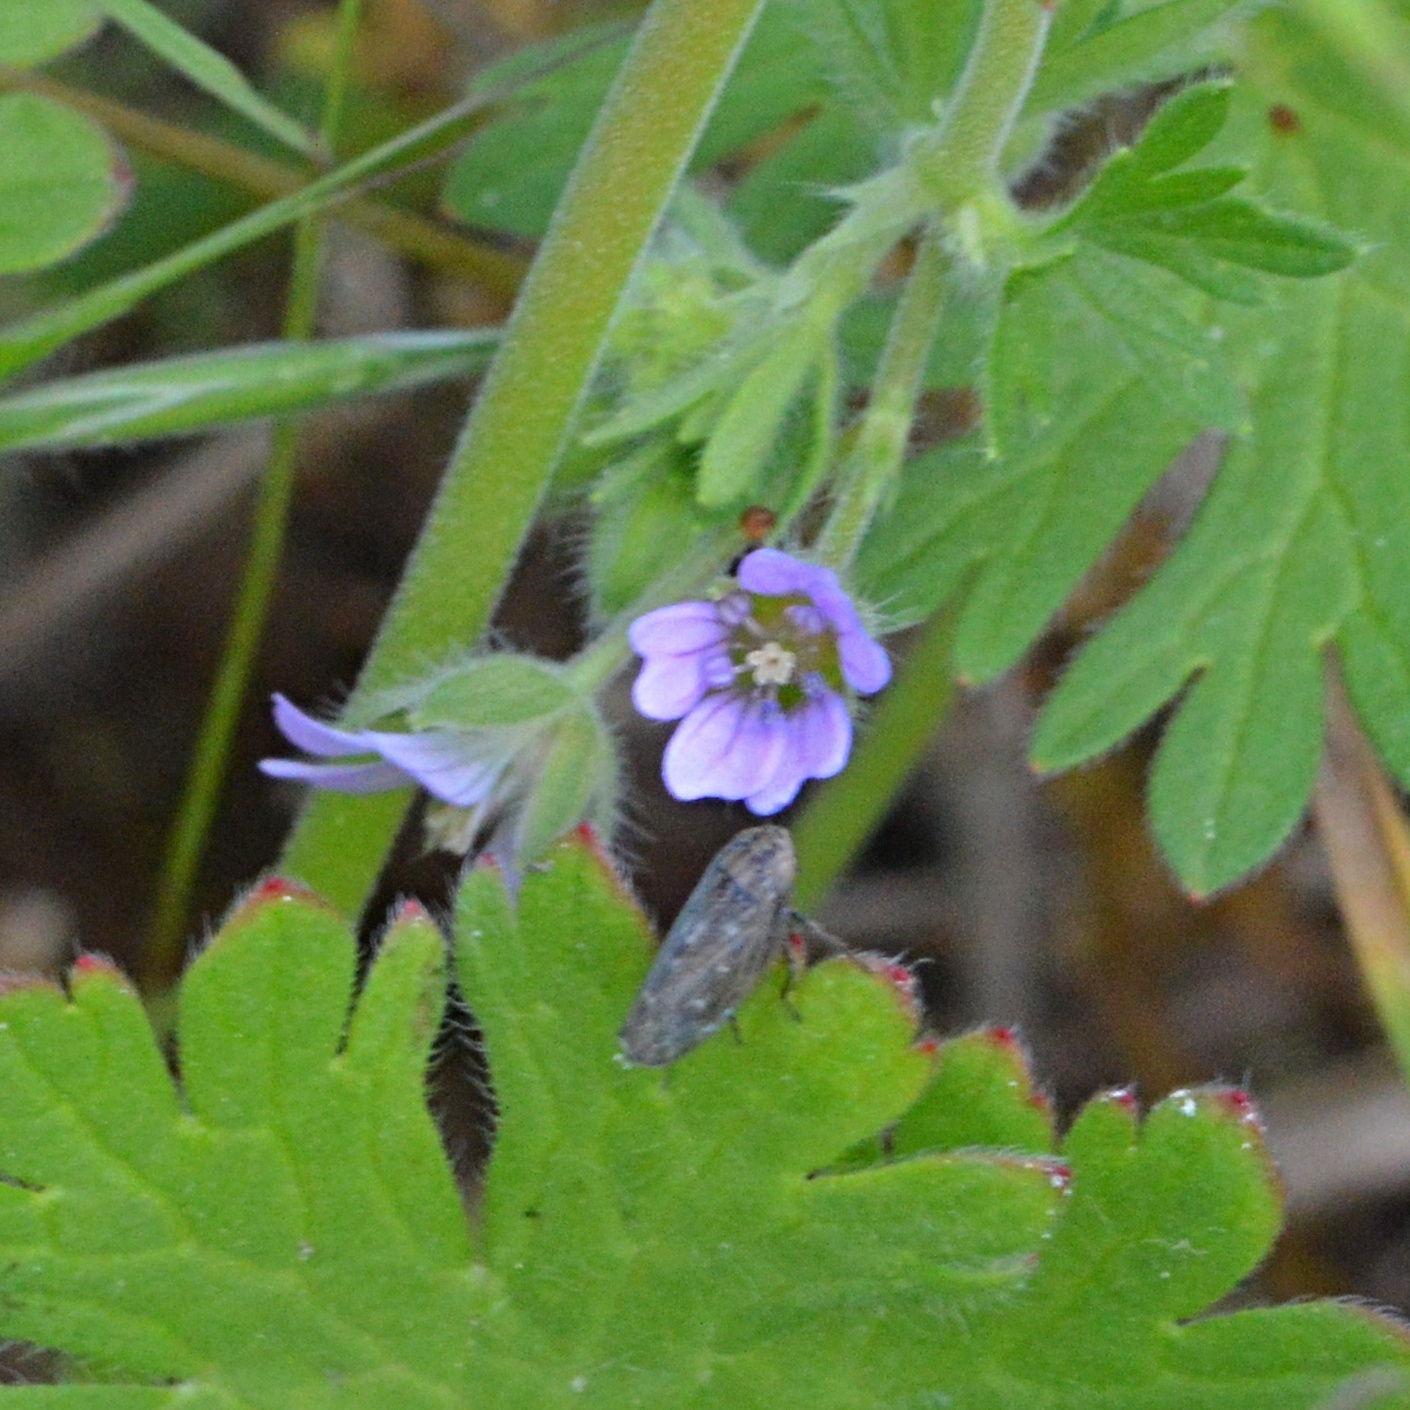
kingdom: Plantae
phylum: Tracheophyta
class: Magnoliopsida
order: Geraniales
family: Geraniaceae
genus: Geranium
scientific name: Geranium pusillum
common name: Small geranium
